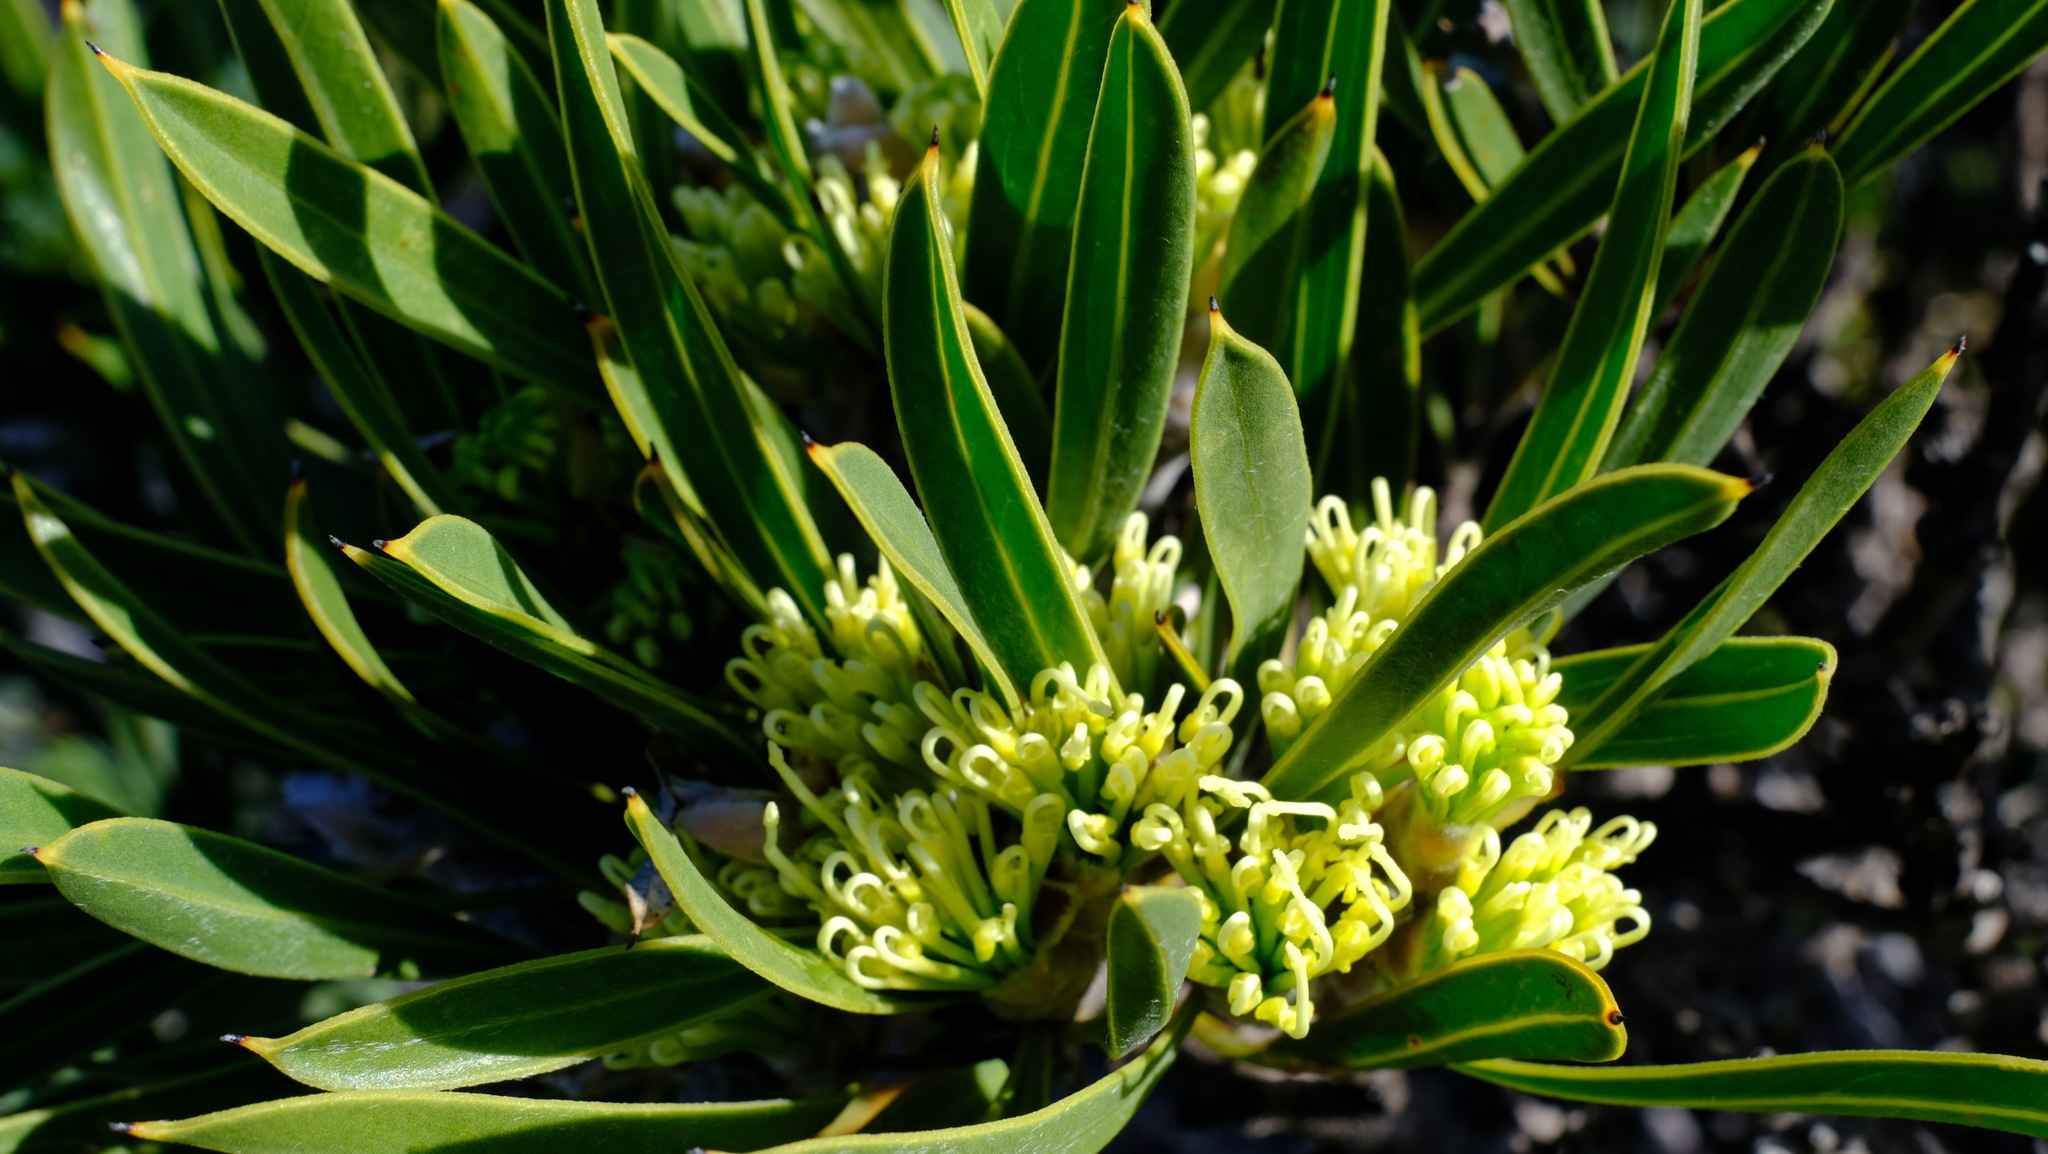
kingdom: Plantae
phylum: Tracheophyta
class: Magnoliopsida
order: Proteales
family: Proteaceae
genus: Hakea
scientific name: Hakea eneabba
